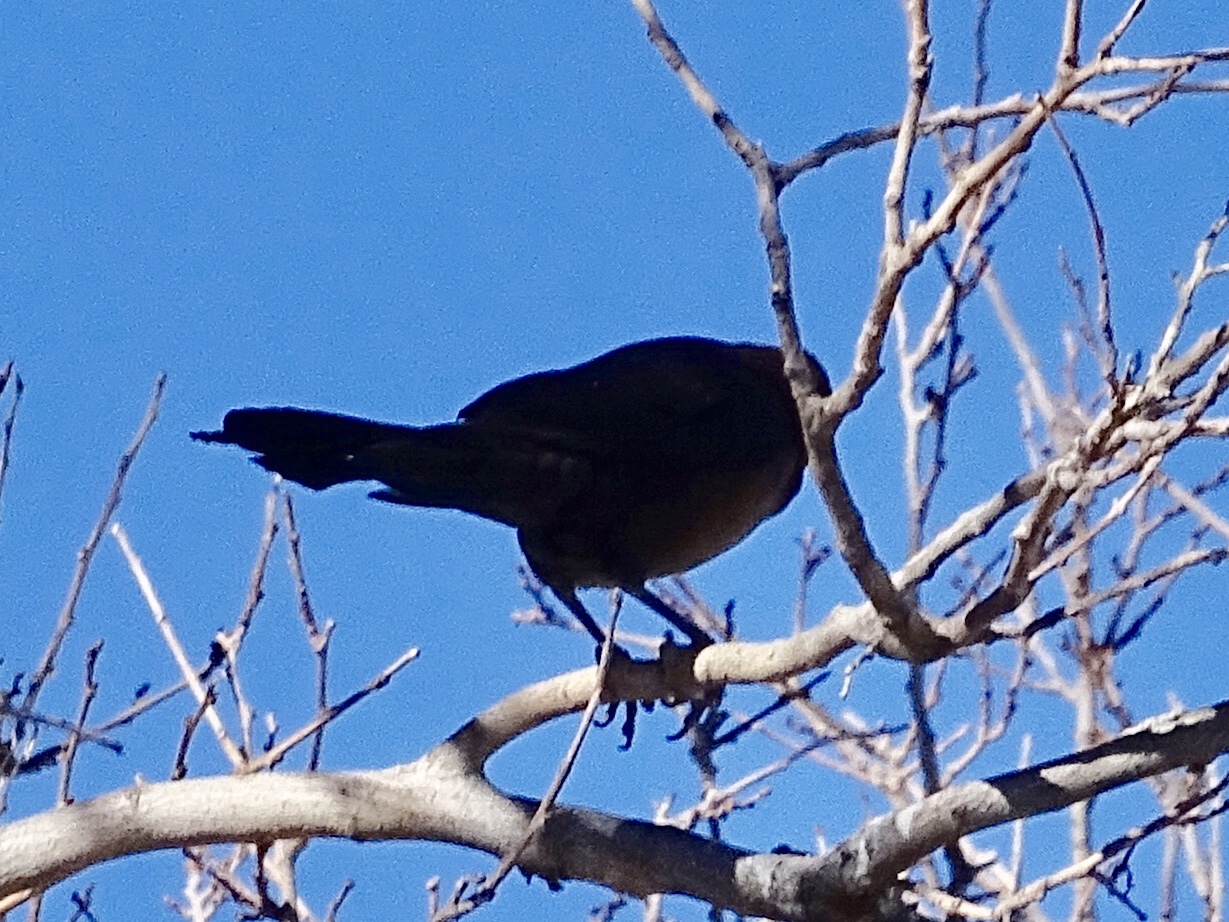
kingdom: Animalia
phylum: Chordata
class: Aves
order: Passeriformes
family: Icteridae
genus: Quiscalus
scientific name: Quiscalus mexicanus
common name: Great-tailed grackle
